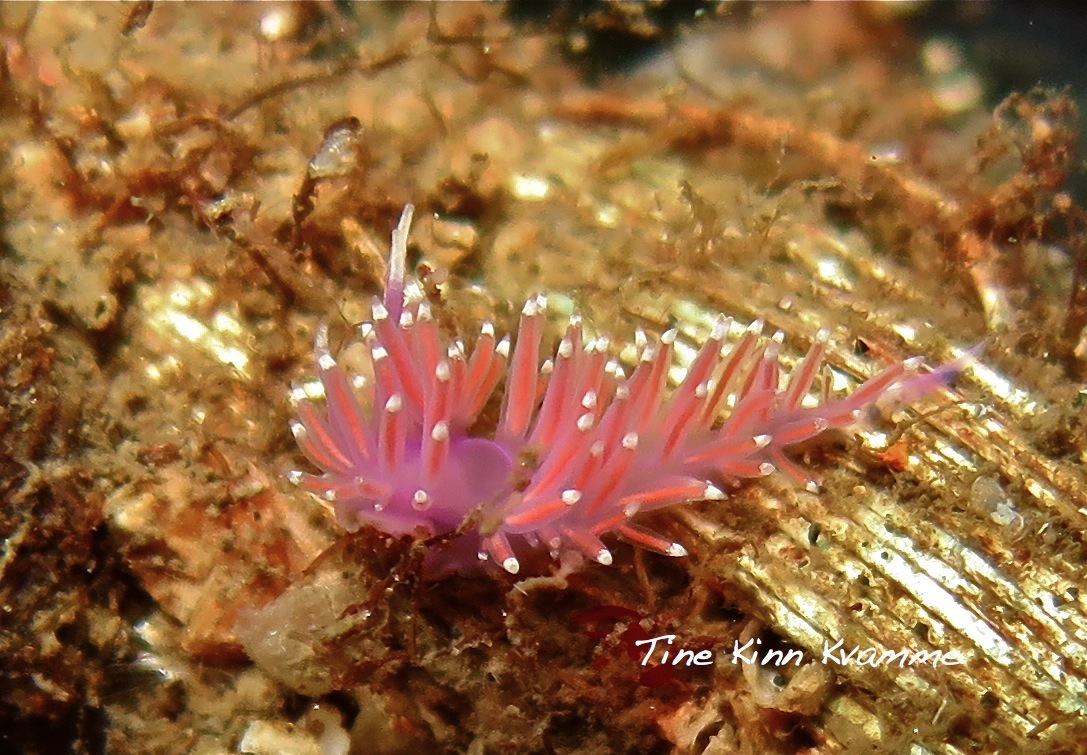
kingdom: Animalia
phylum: Mollusca
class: Gastropoda
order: Nudibranchia
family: Flabellinidae
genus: Edmundsella
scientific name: Edmundsella pedata
